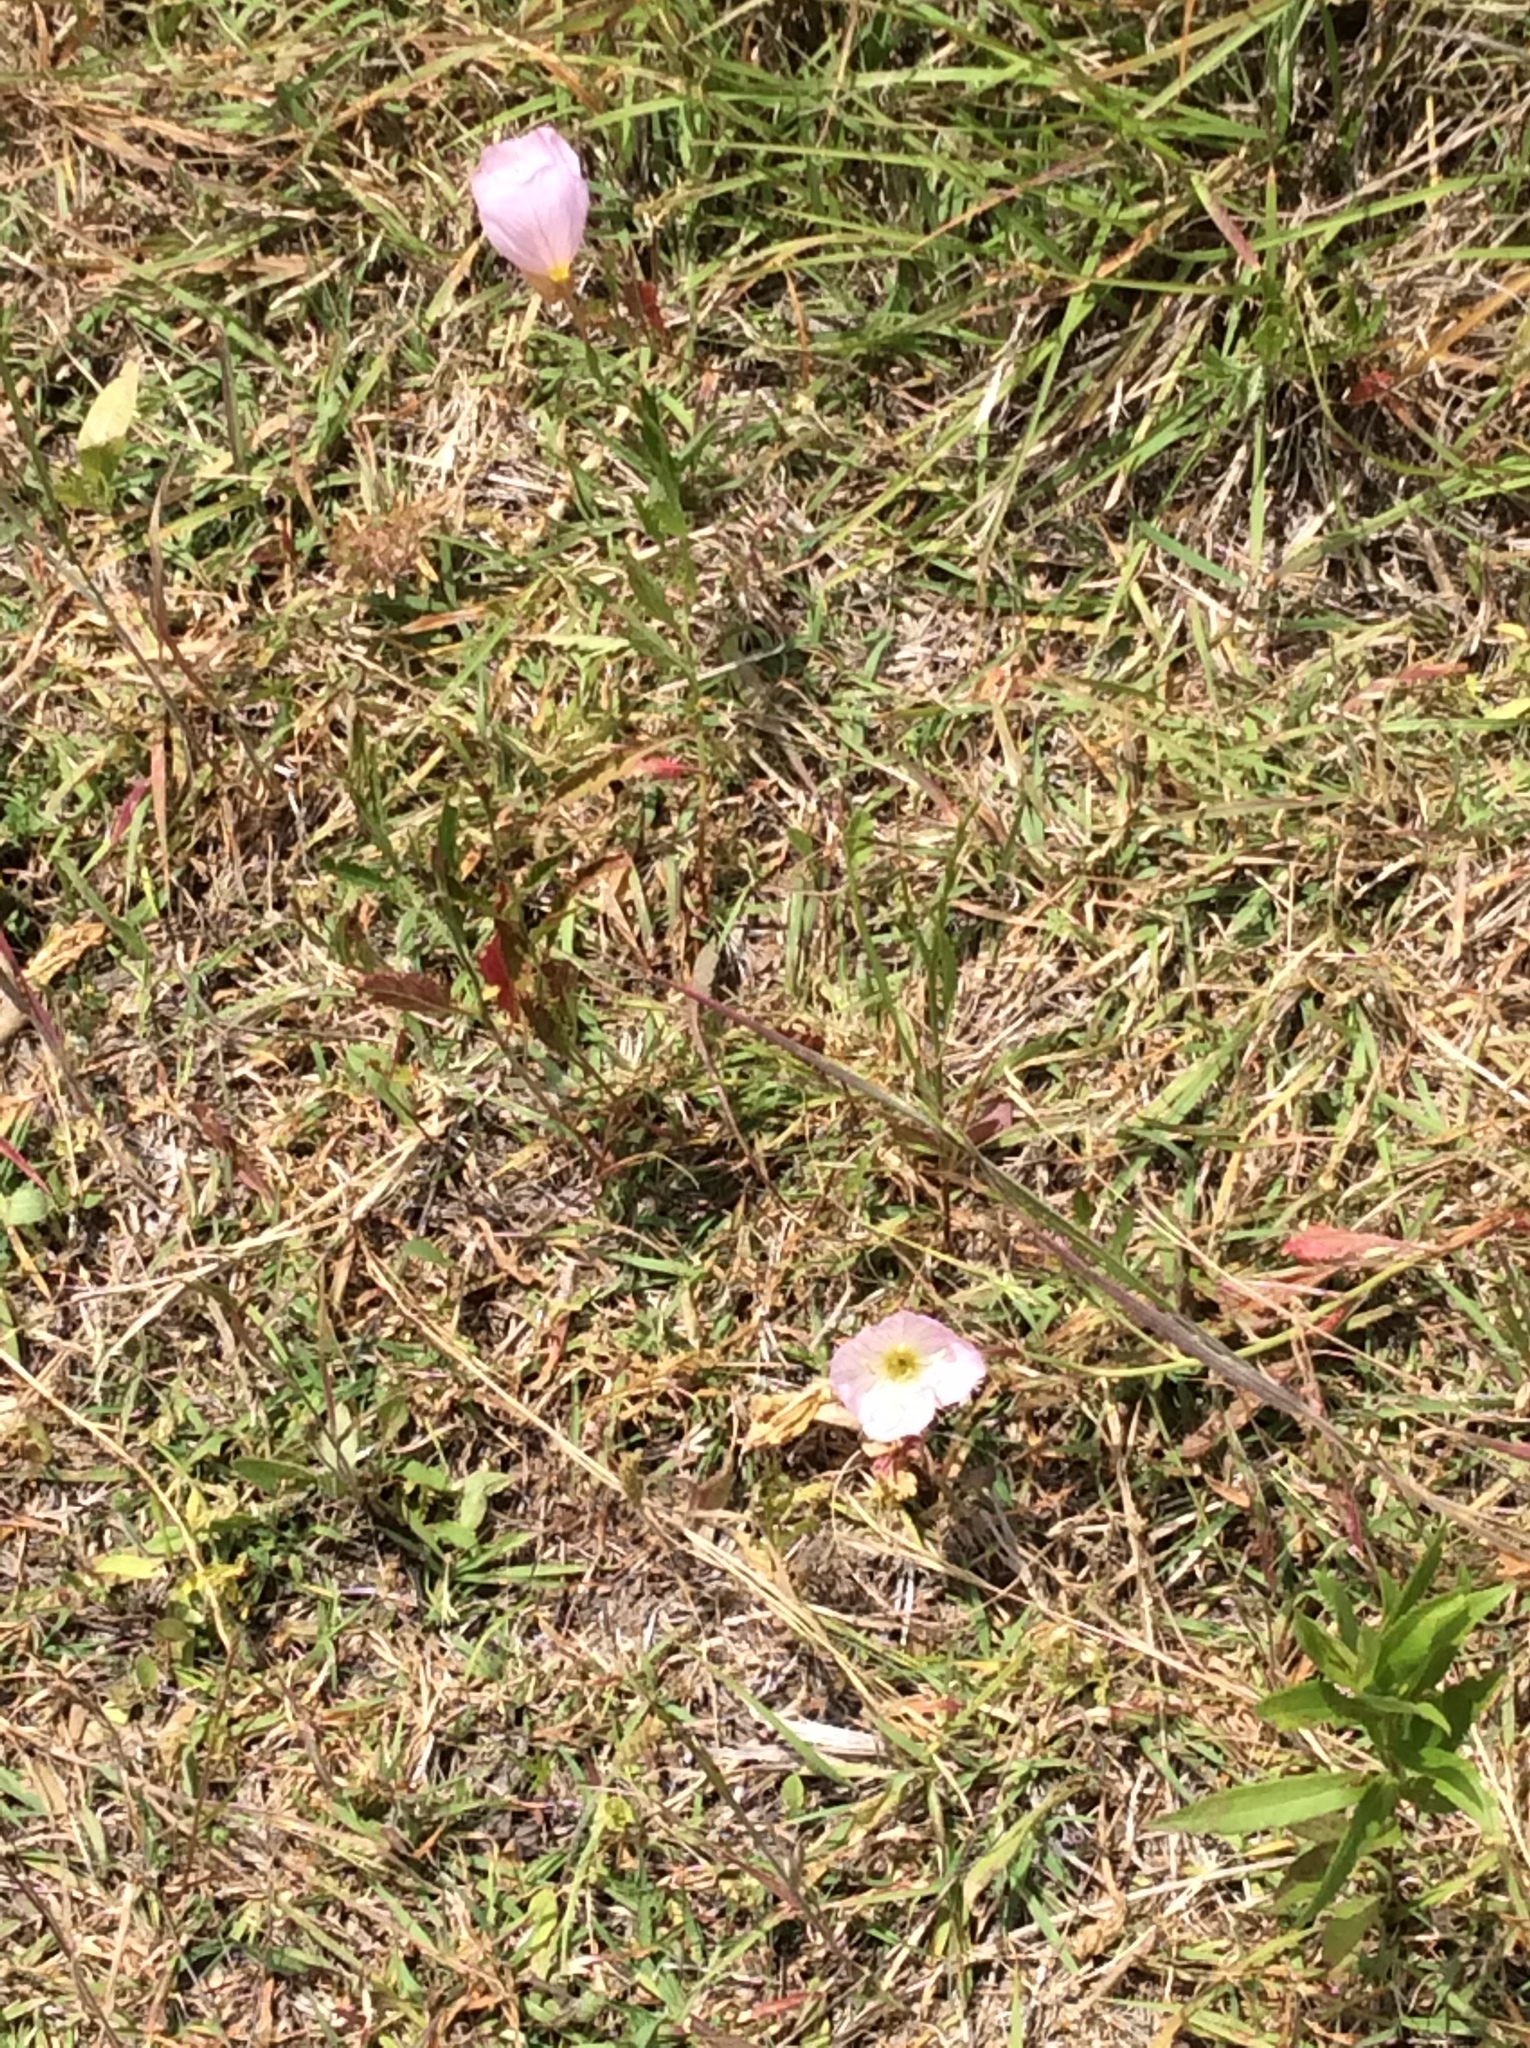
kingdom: Plantae
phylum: Tracheophyta
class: Magnoliopsida
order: Myrtales
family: Onagraceae
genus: Oenothera
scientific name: Oenothera speciosa
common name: White evening-primrose
